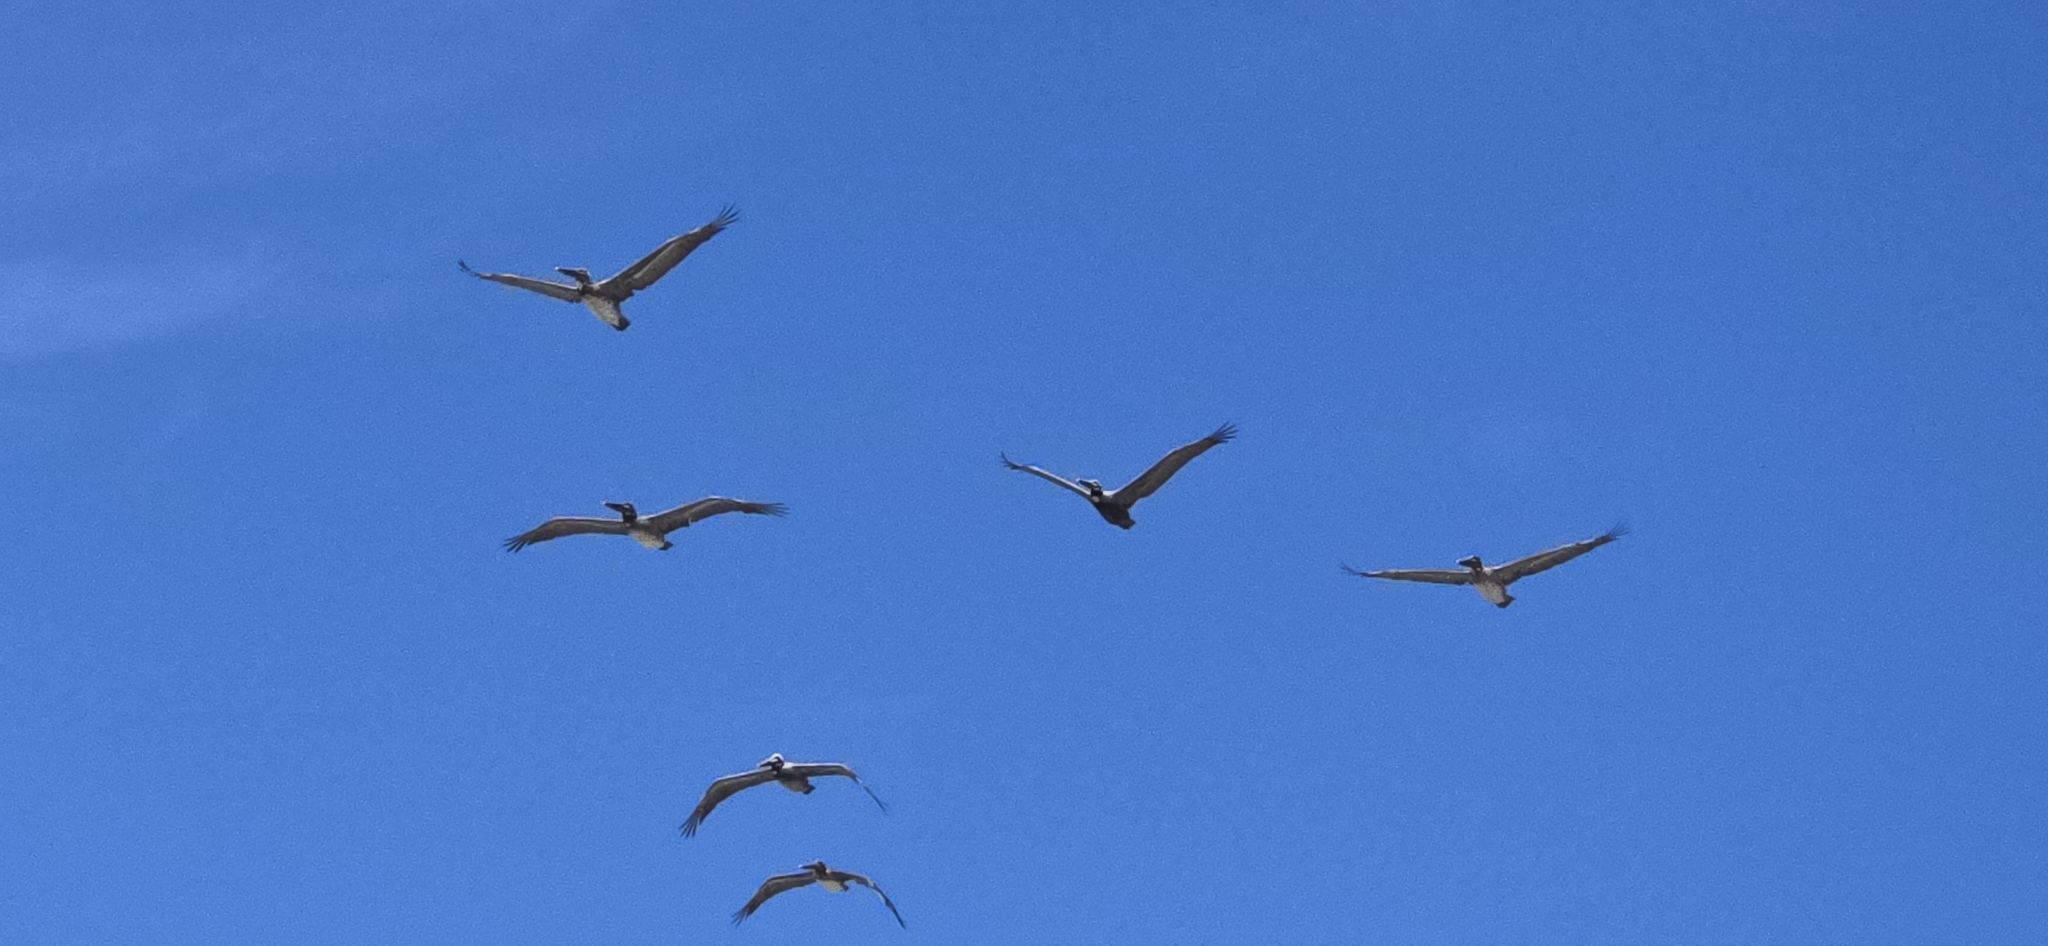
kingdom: Animalia
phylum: Chordata
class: Aves
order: Pelecaniformes
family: Pelecanidae
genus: Pelecanus
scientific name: Pelecanus occidentalis
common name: Brown pelican
